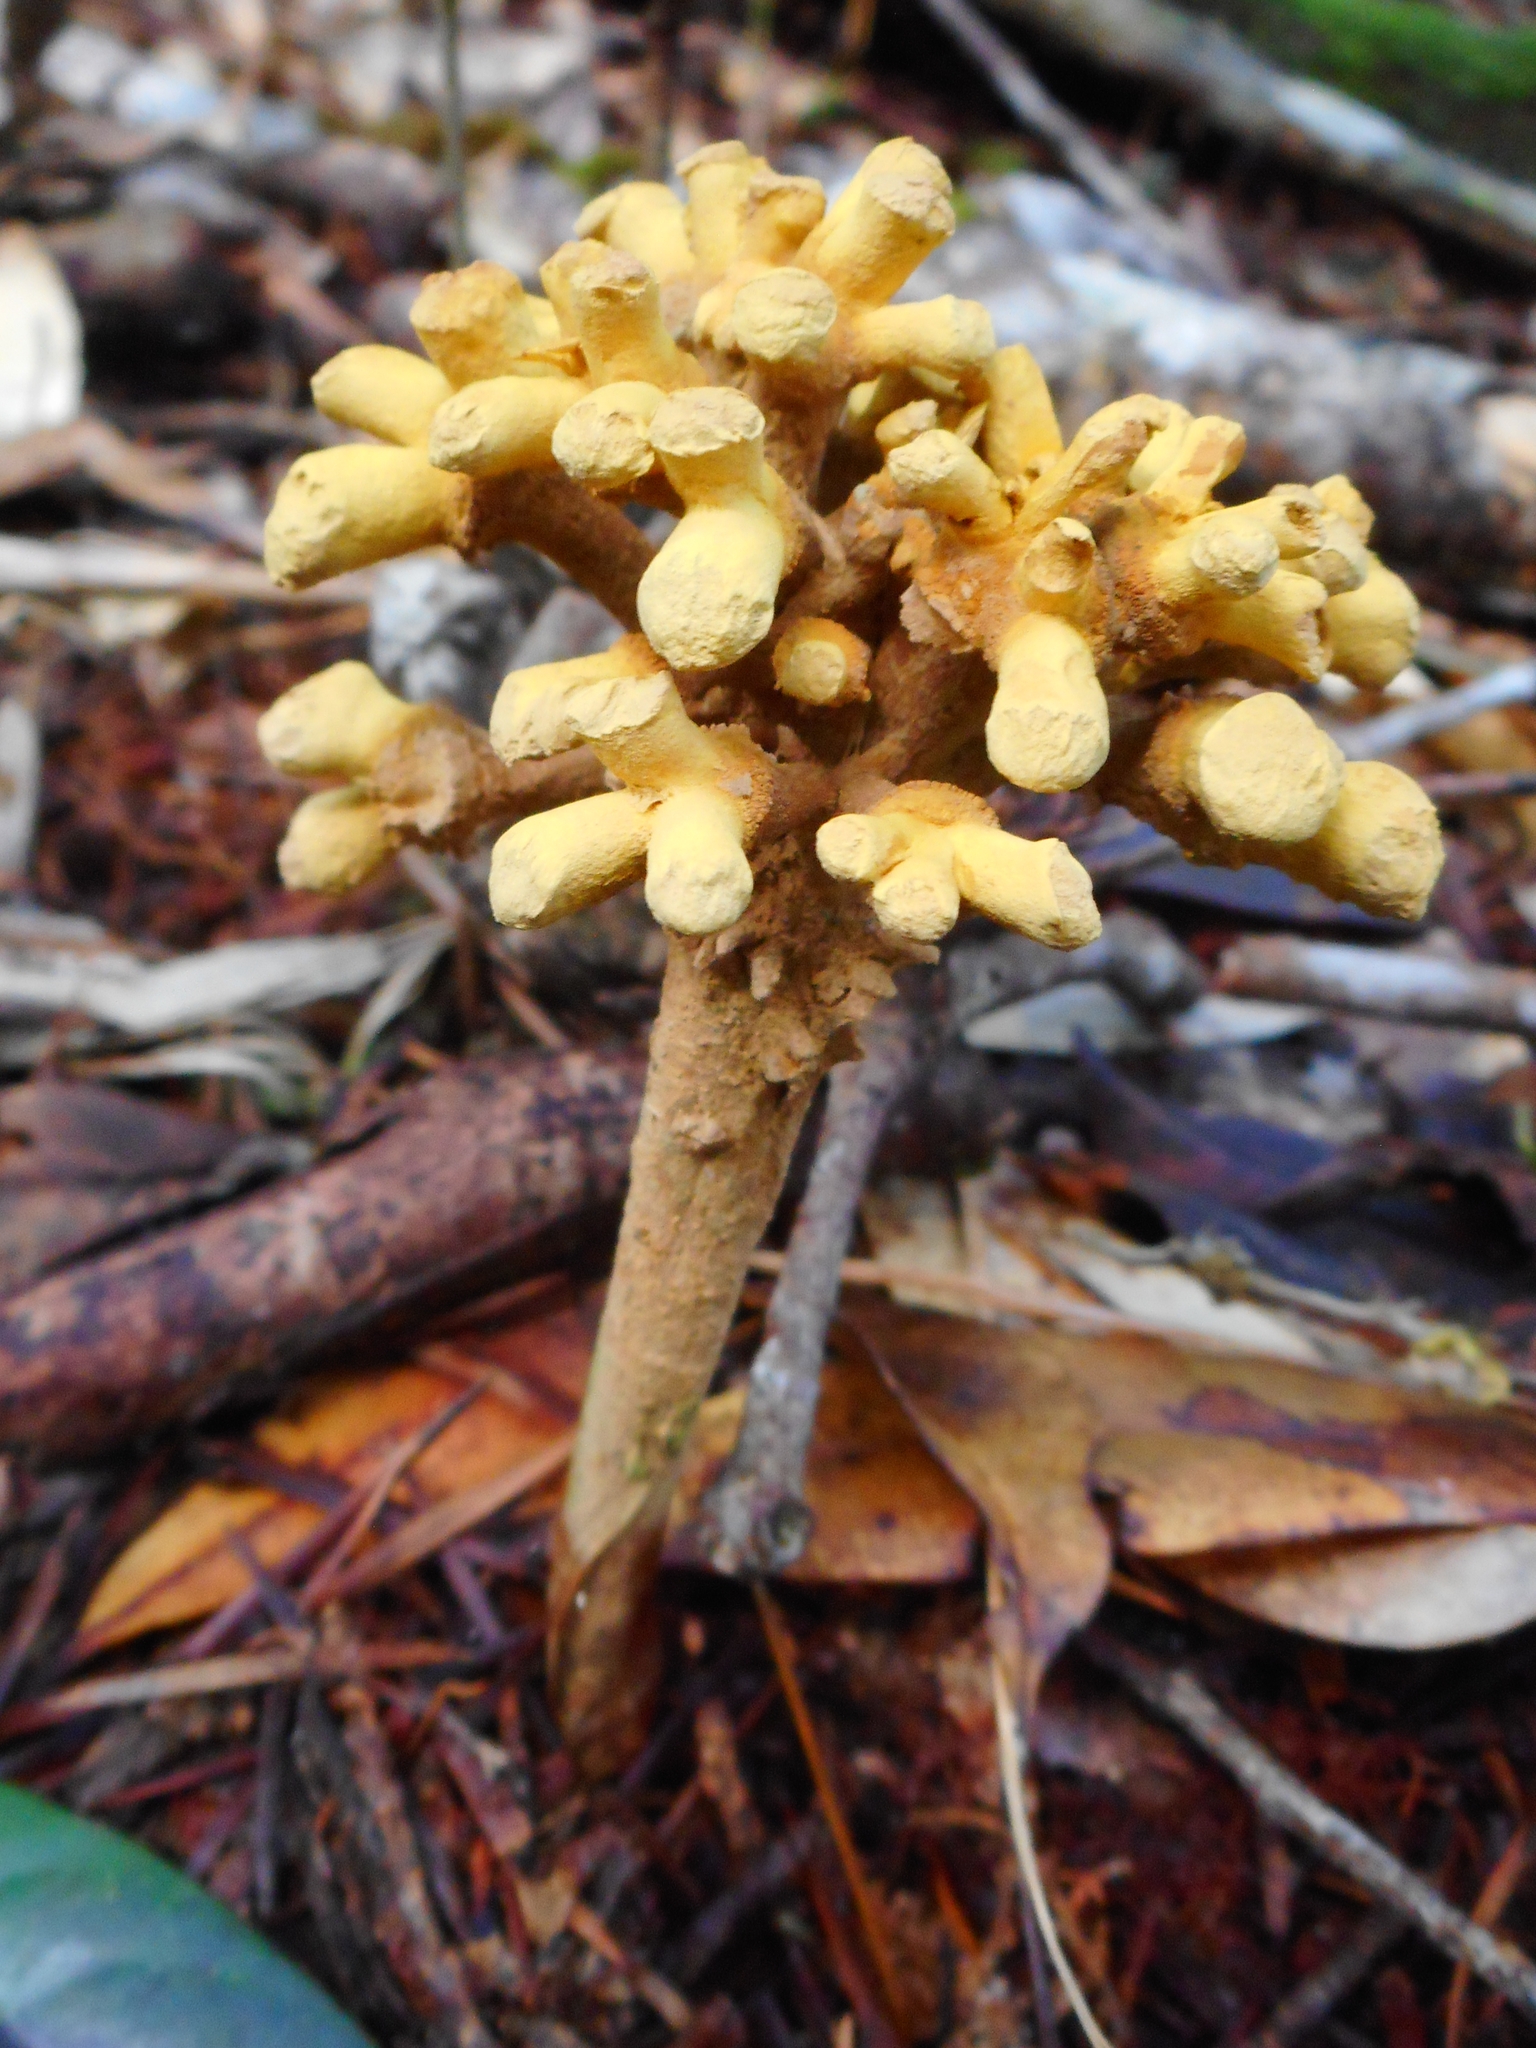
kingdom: Fungi
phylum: Ascomycota
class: Eurotiomycetes
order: Eurotiales
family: Aspergillaceae
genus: Dendrosphaera
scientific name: Dendrosphaera eberhardtii
